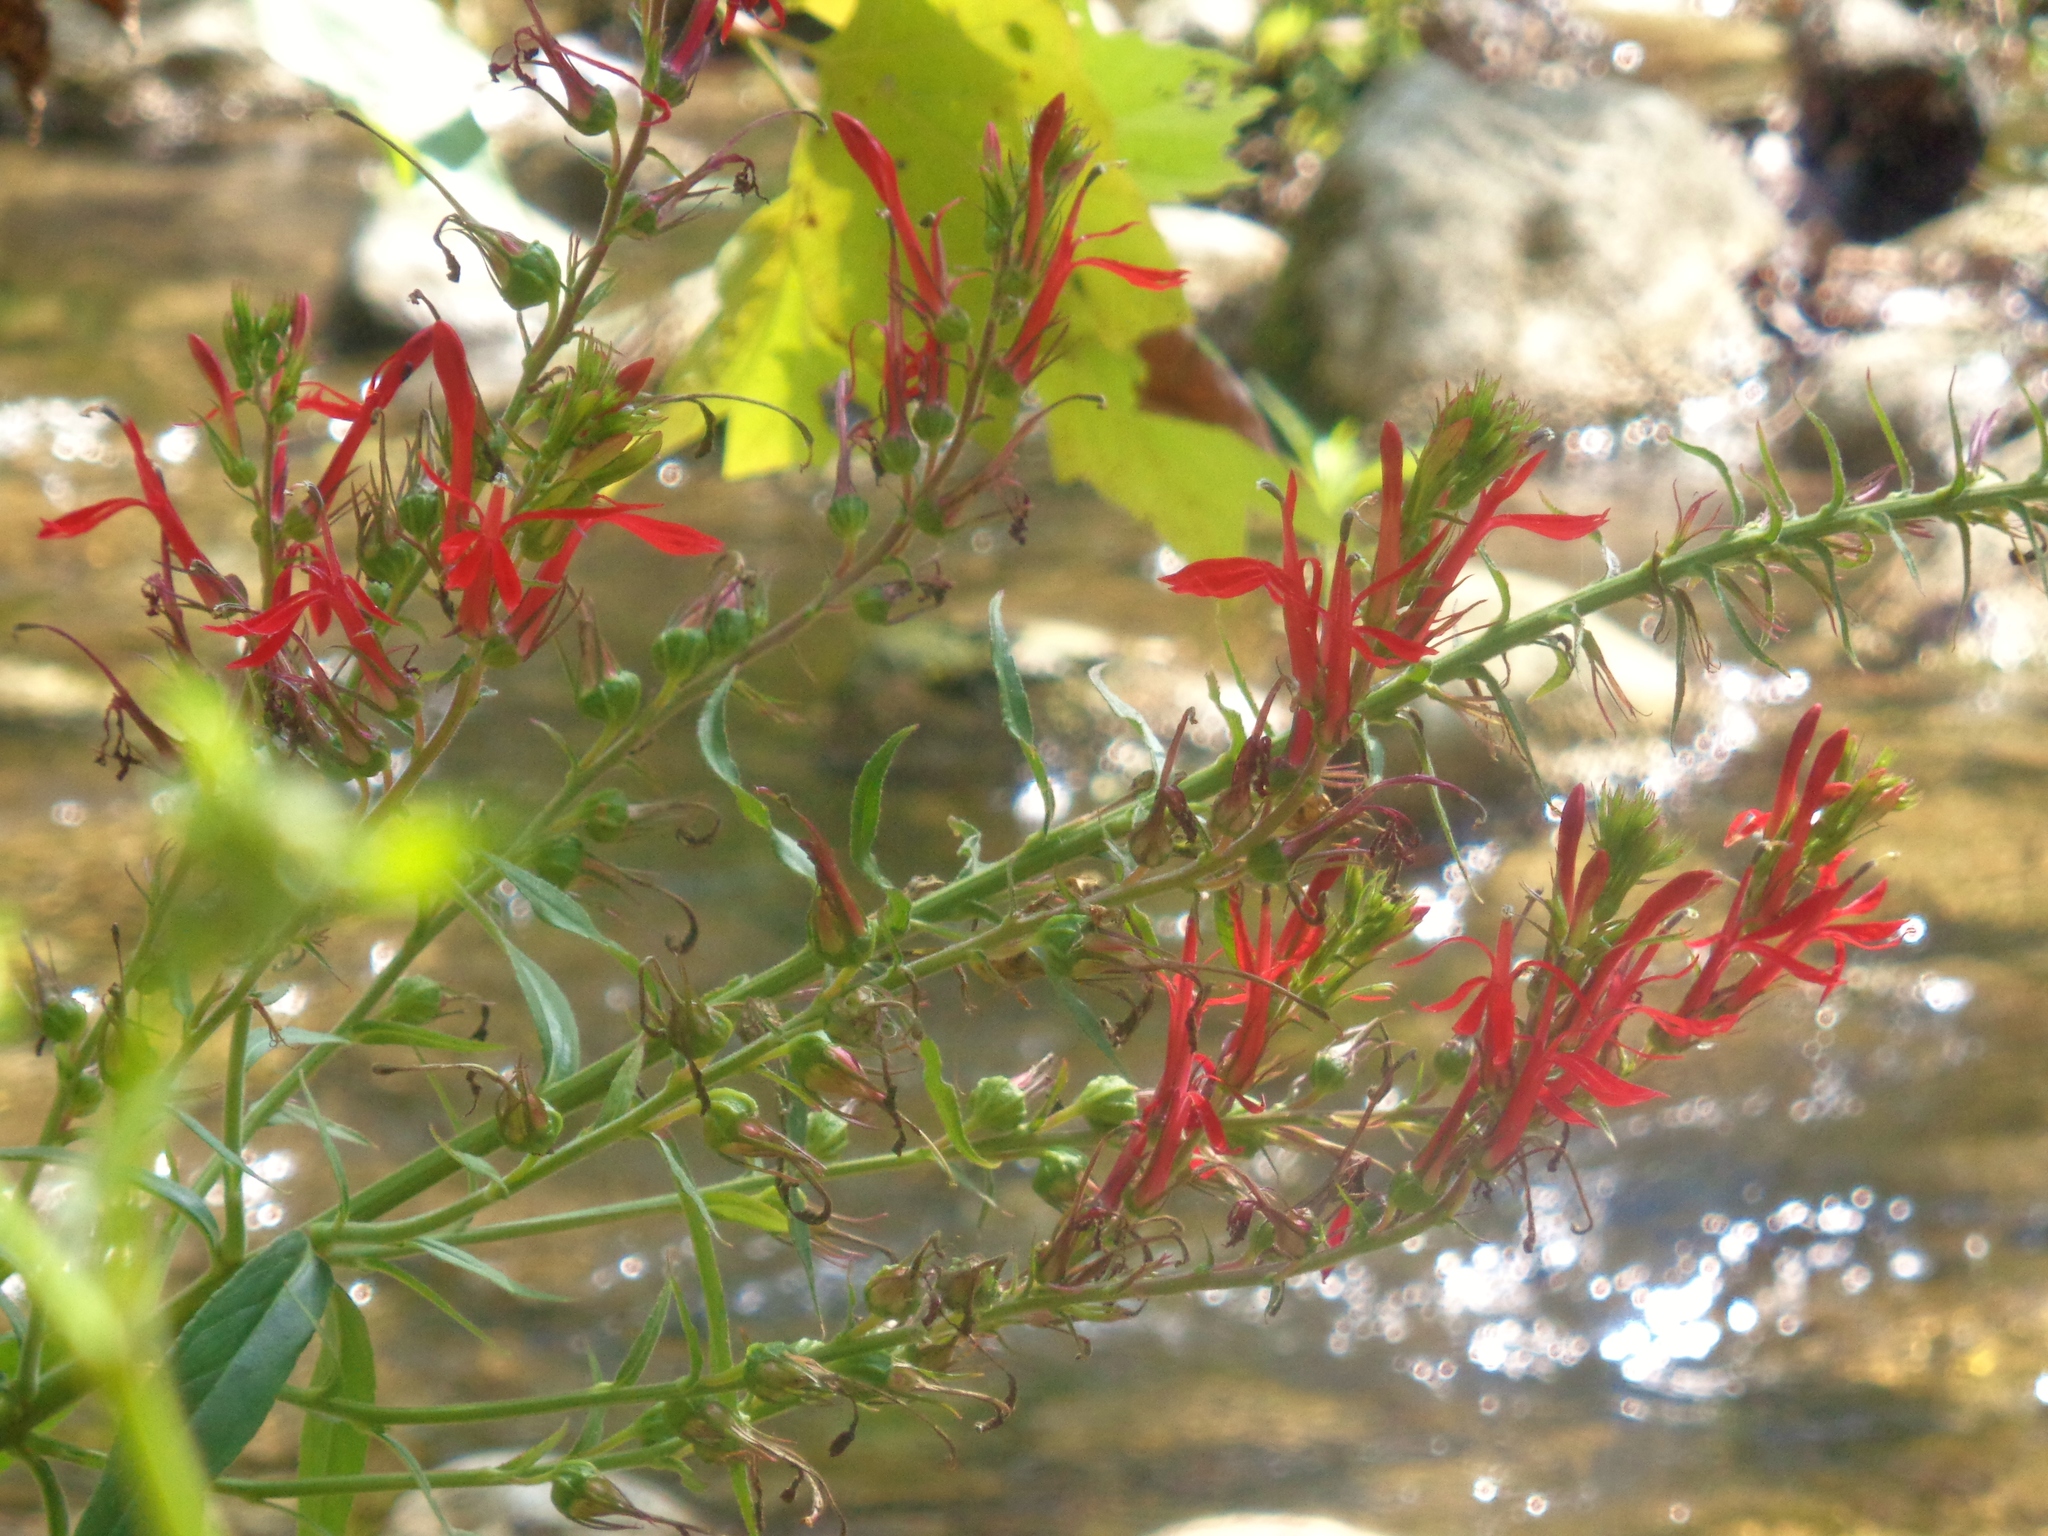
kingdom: Plantae
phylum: Tracheophyta
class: Magnoliopsida
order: Asterales
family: Campanulaceae
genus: Lobelia
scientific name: Lobelia cardinalis
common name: Cardinal flower
